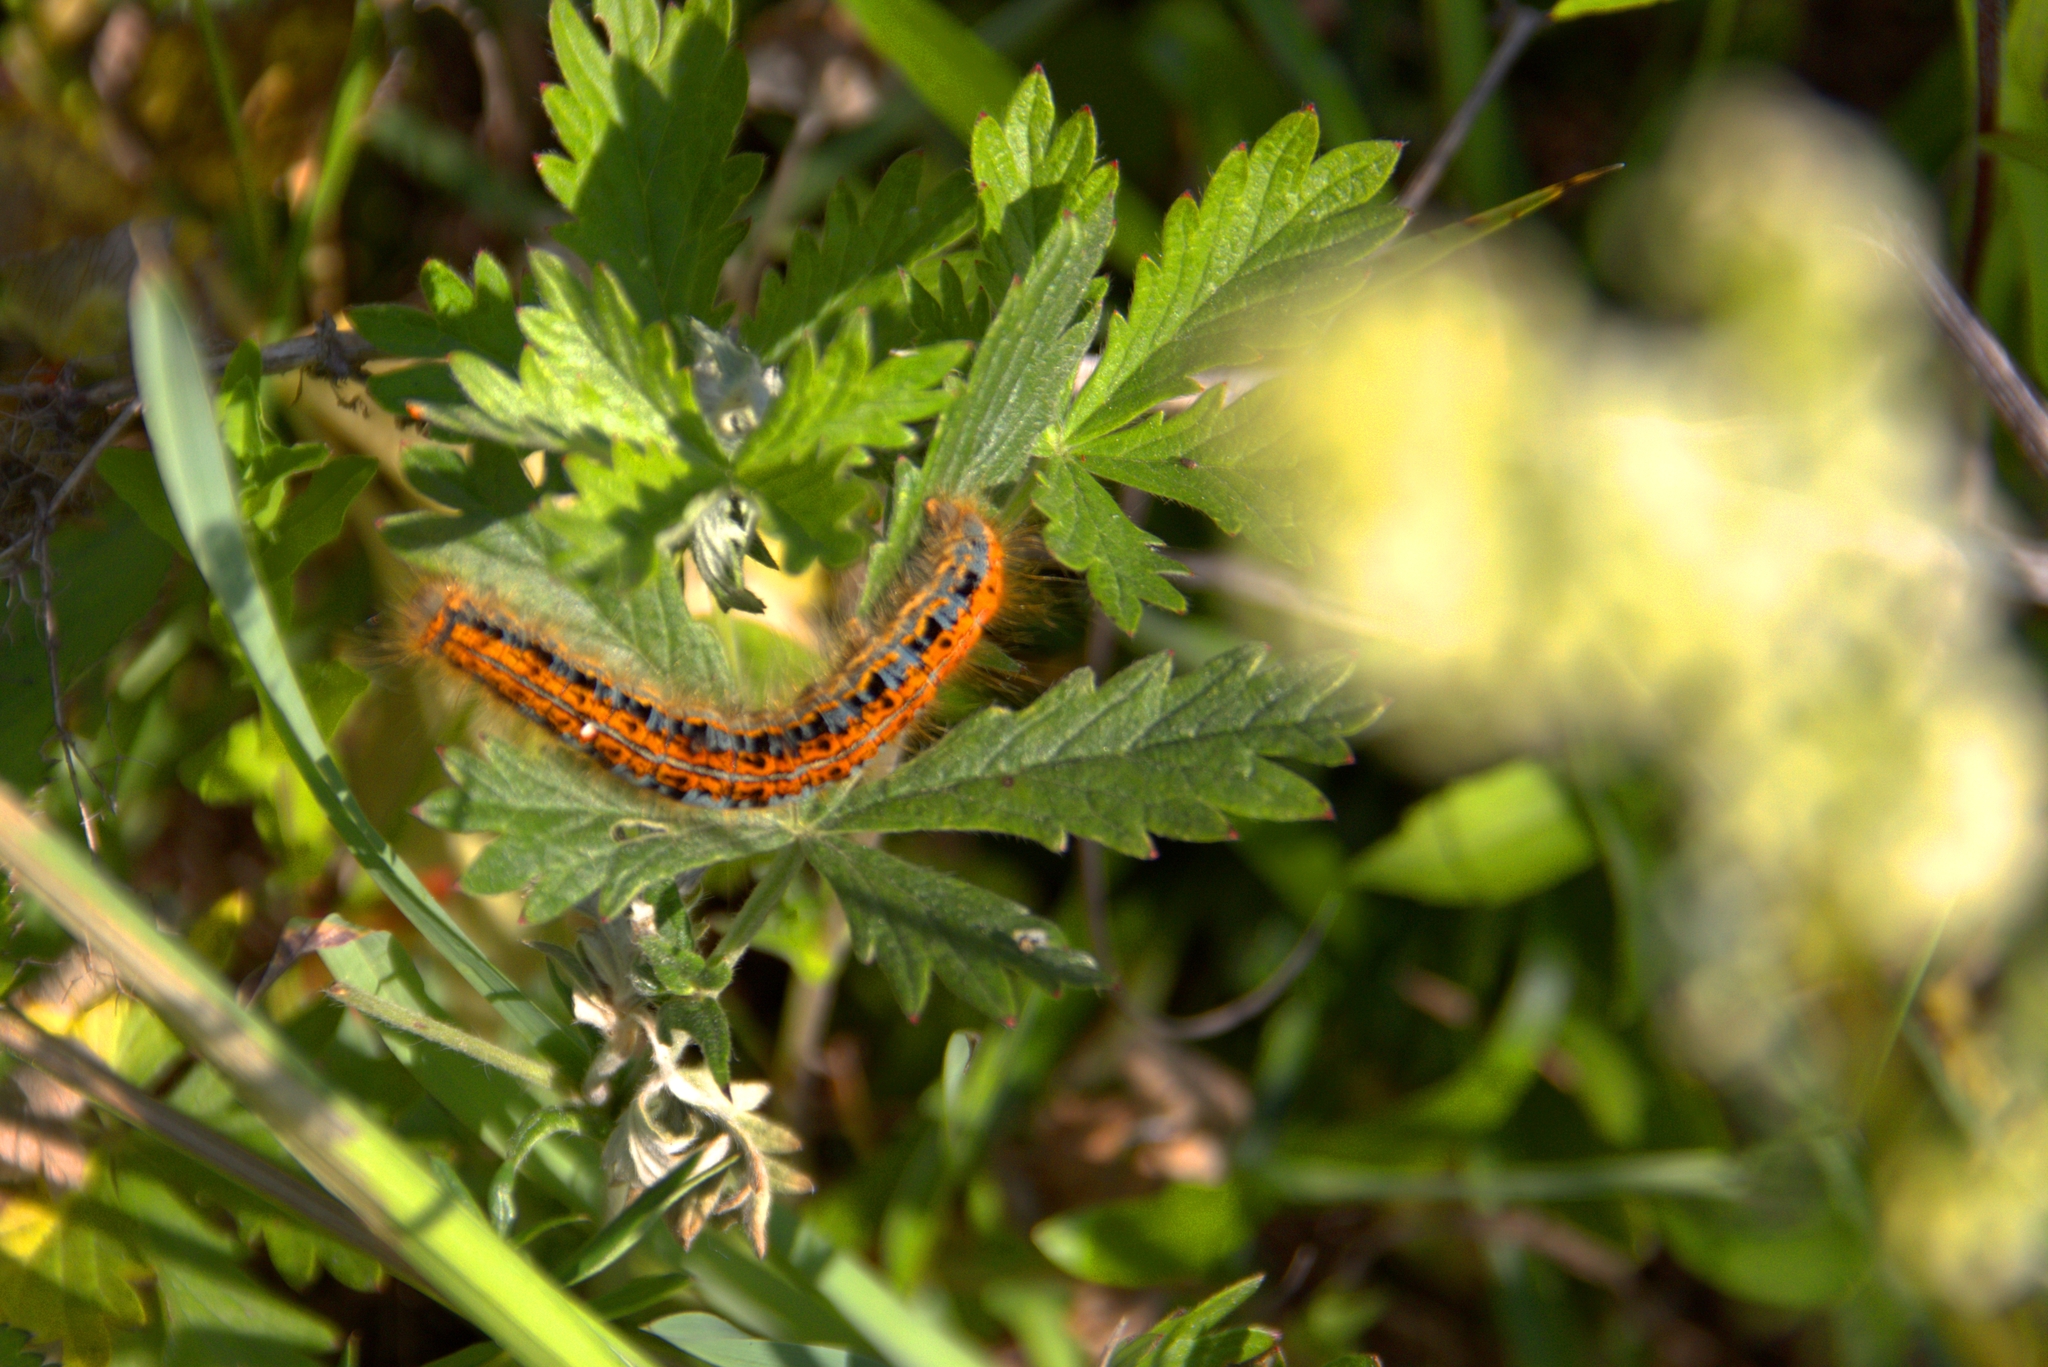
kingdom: Animalia
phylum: Arthropoda
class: Insecta
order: Lepidoptera
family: Lasiocampidae
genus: Malacosoma
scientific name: Malacosoma castrense
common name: Ground lackey
